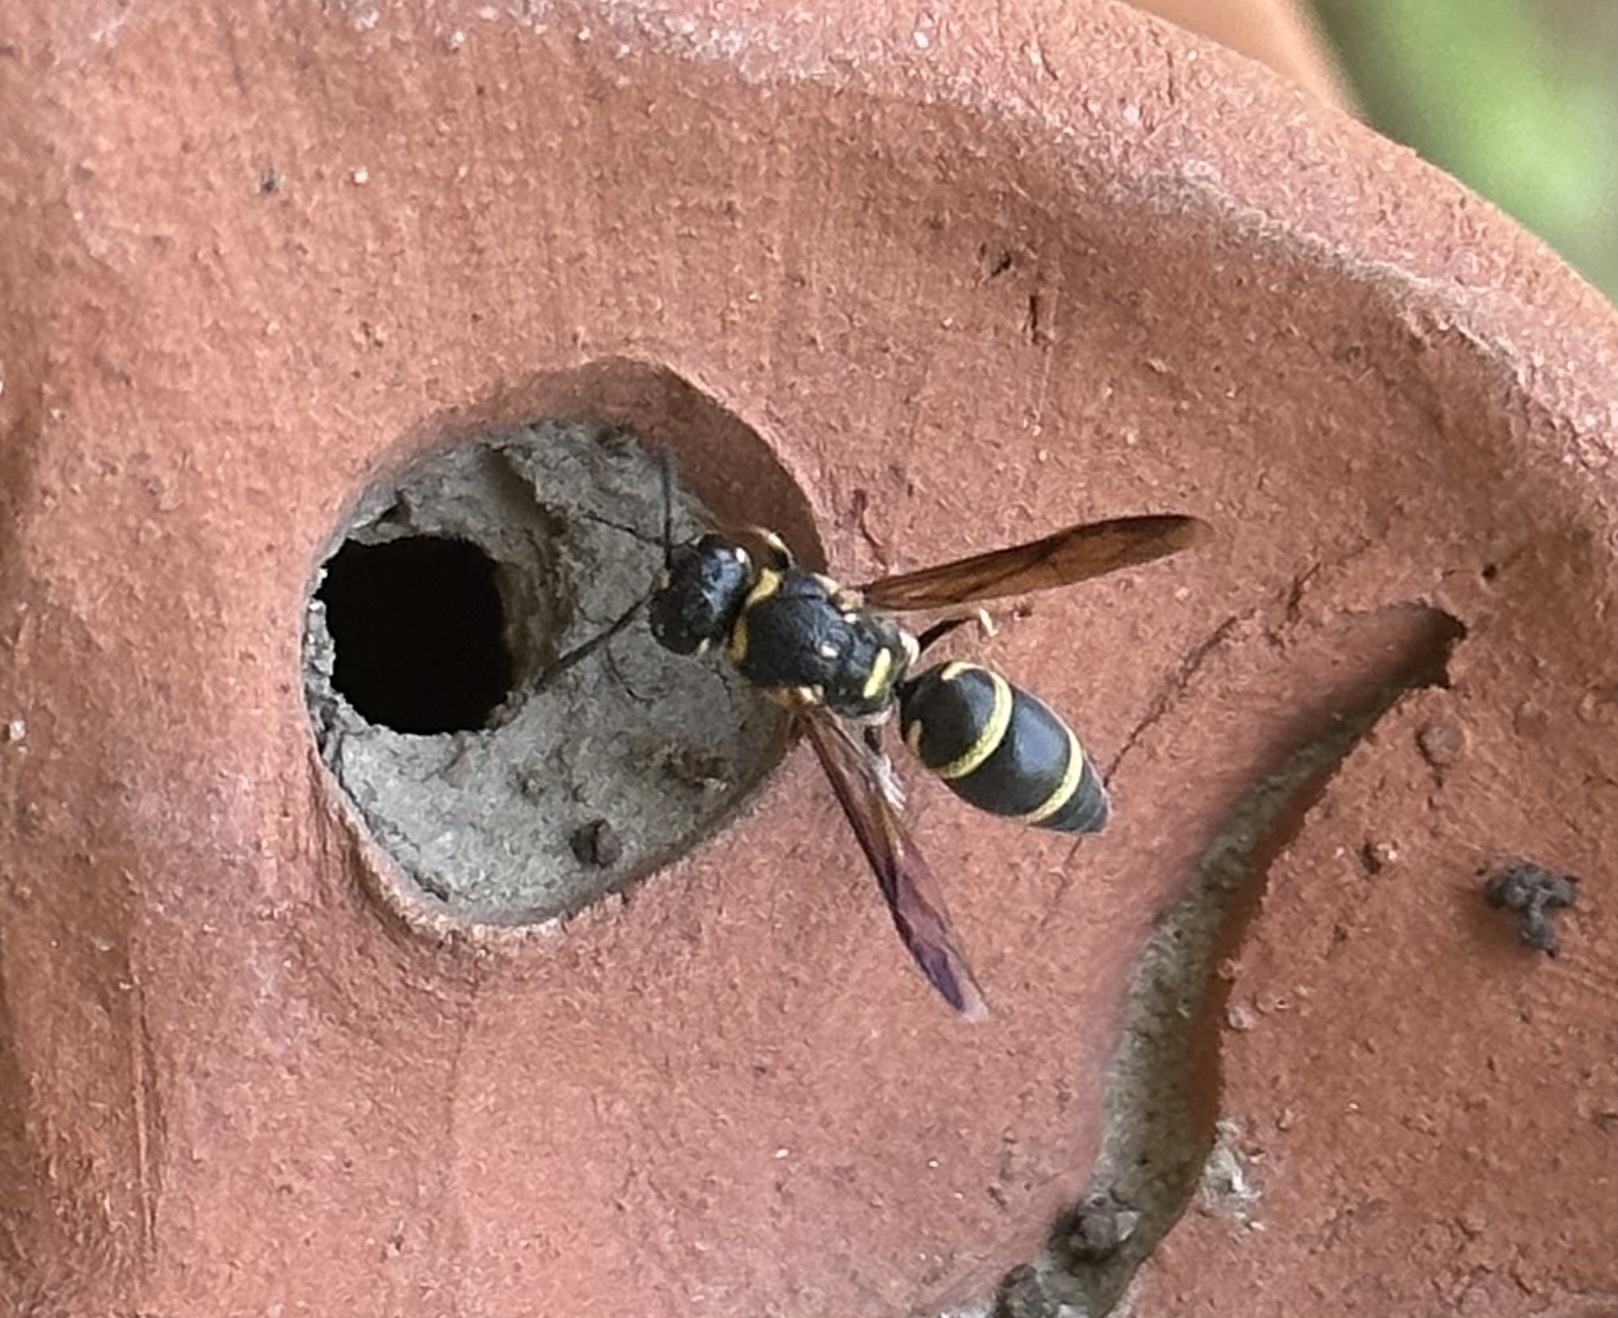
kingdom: Animalia
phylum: Arthropoda
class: Insecta
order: Hymenoptera
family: Eumenidae
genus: Parancistrocerus
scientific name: Parancistrocerus fulvipes
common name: Potter wasp
